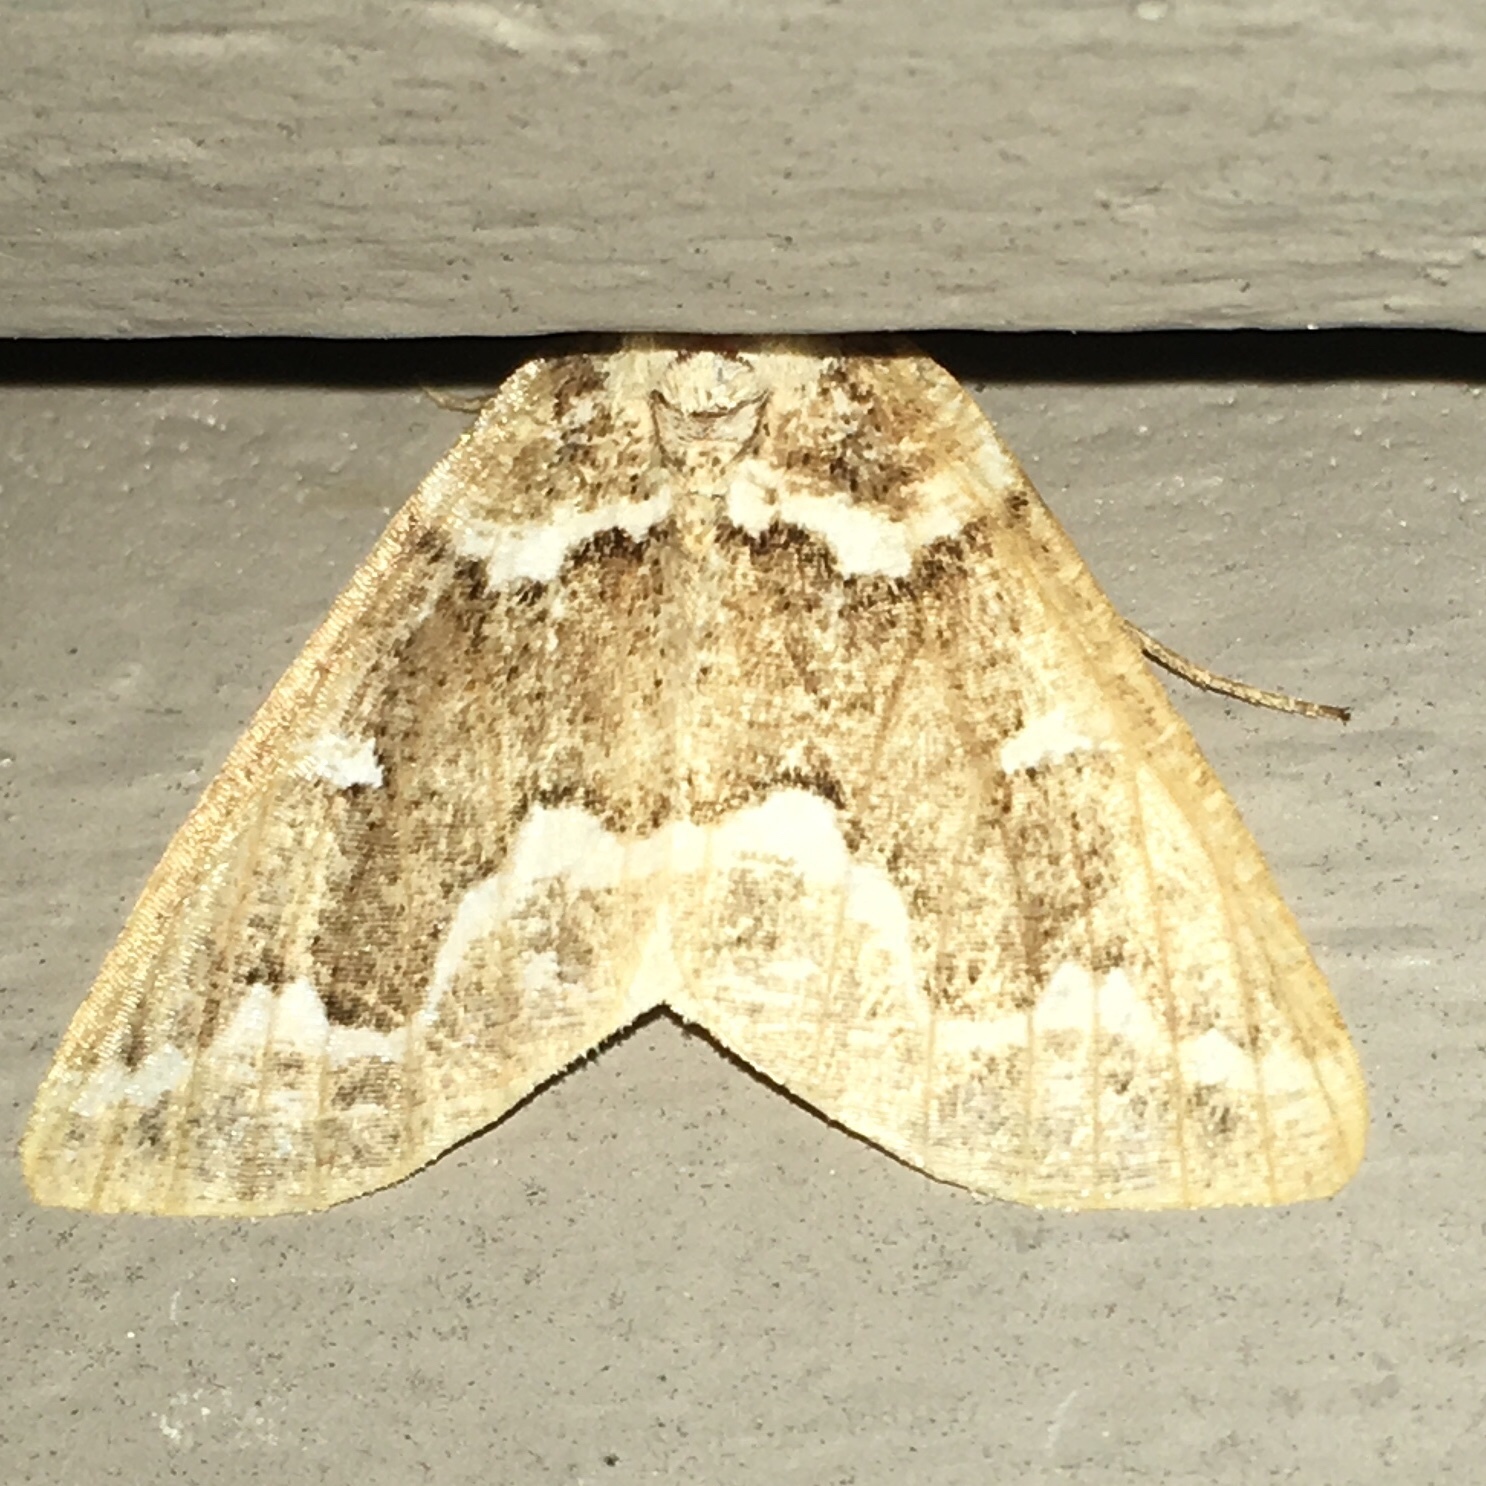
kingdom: Animalia
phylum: Arthropoda
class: Insecta
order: Lepidoptera
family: Geometridae
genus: Caripeta
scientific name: Caripeta divisata
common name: Gray spruce looper
